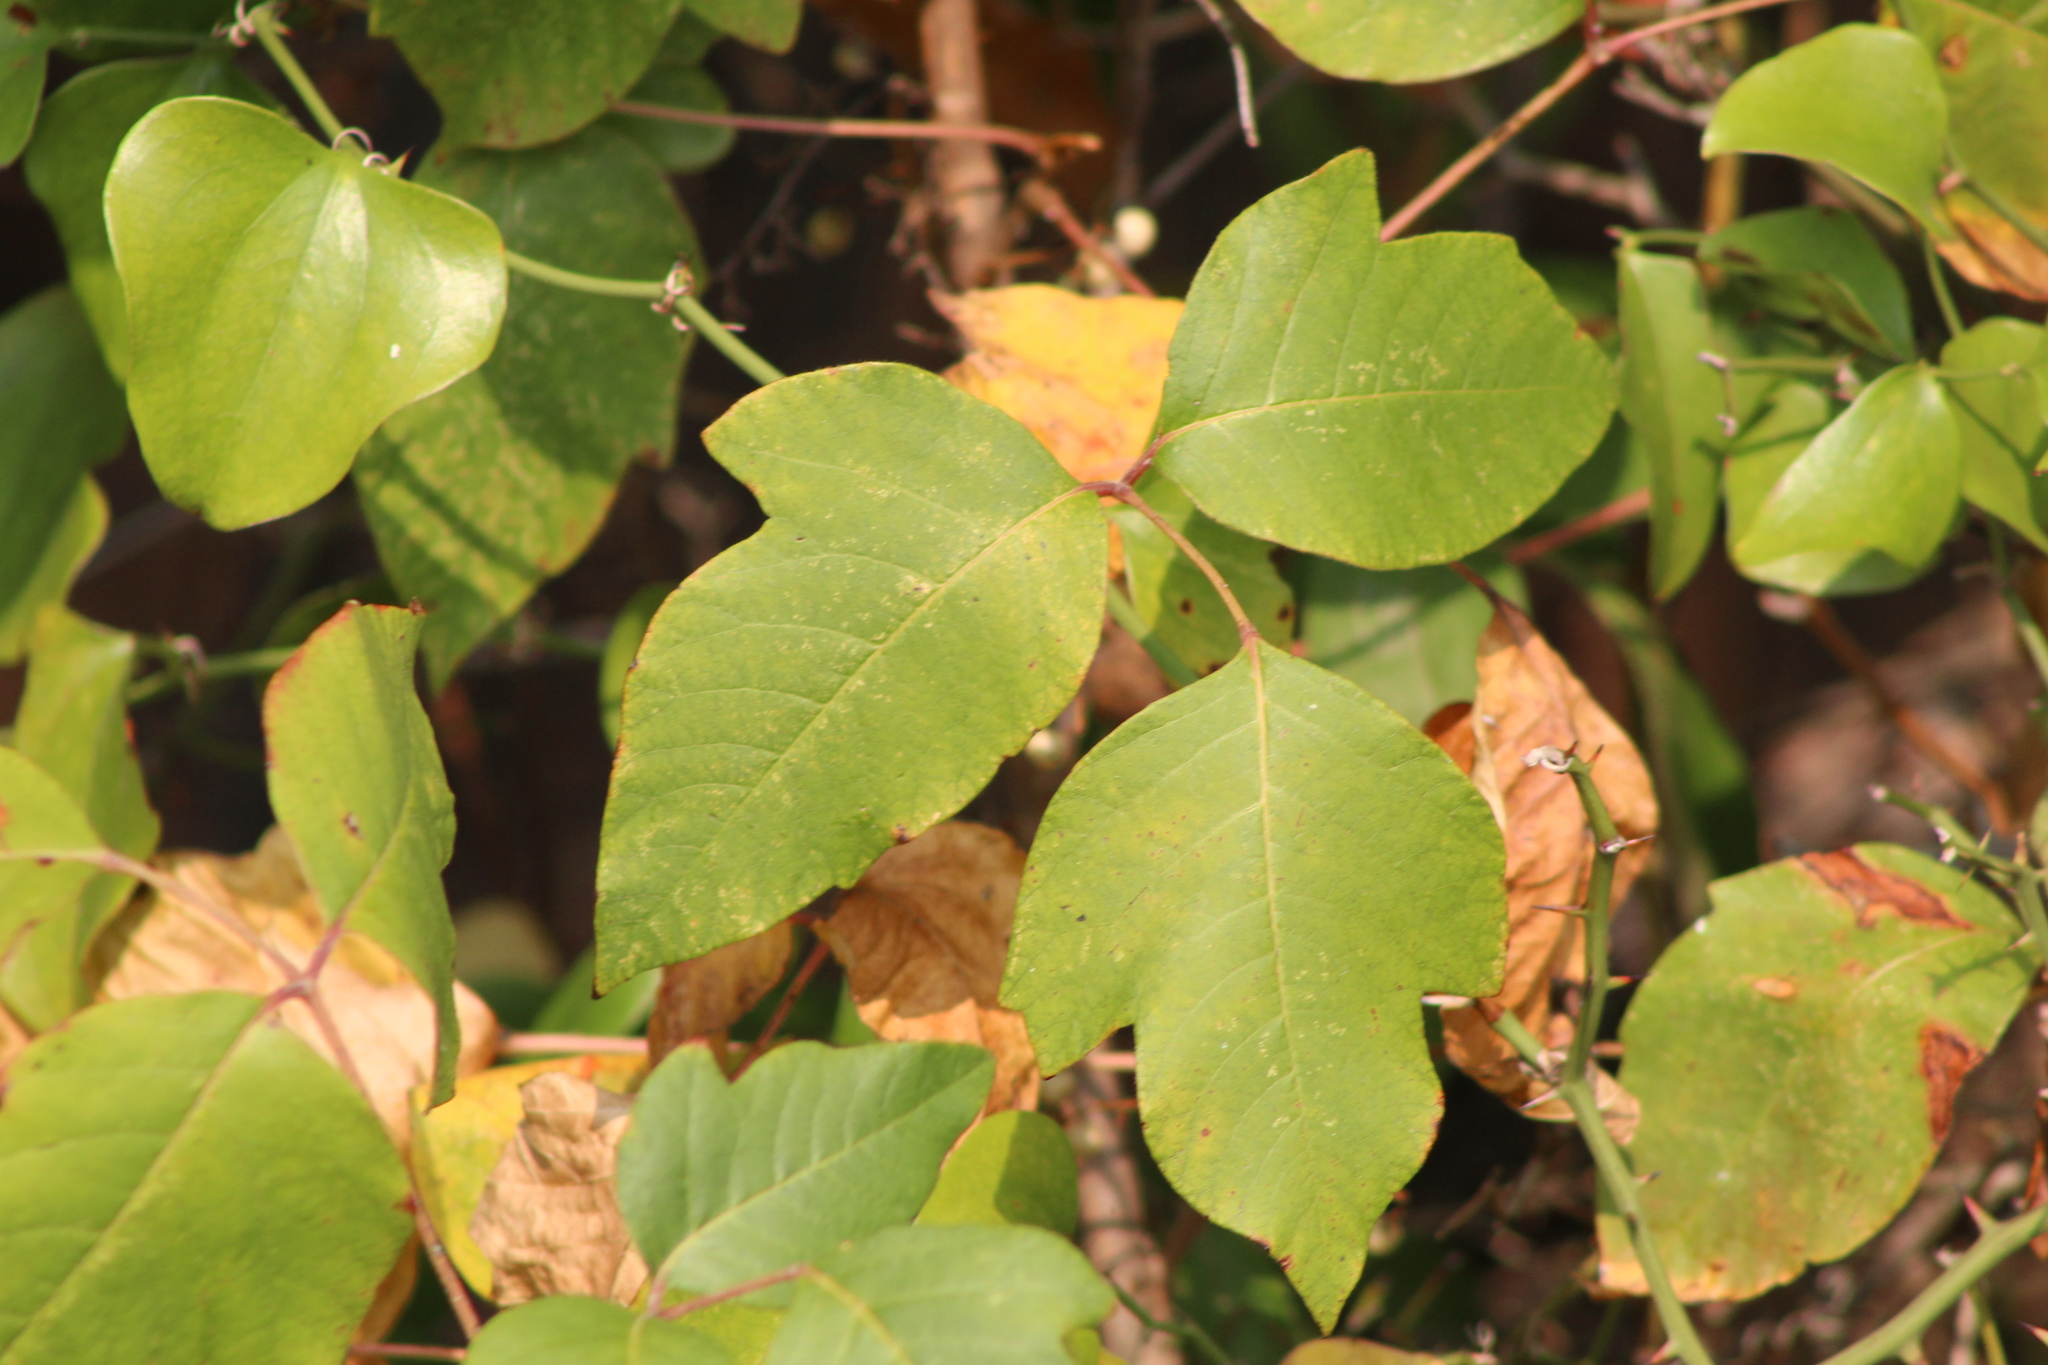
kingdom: Plantae
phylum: Tracheophyta
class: Magnoliopsida
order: Sapindales
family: Anacardiaceae
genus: Toxicodendron
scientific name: Toxicodendron radicans
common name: Poison ivy
